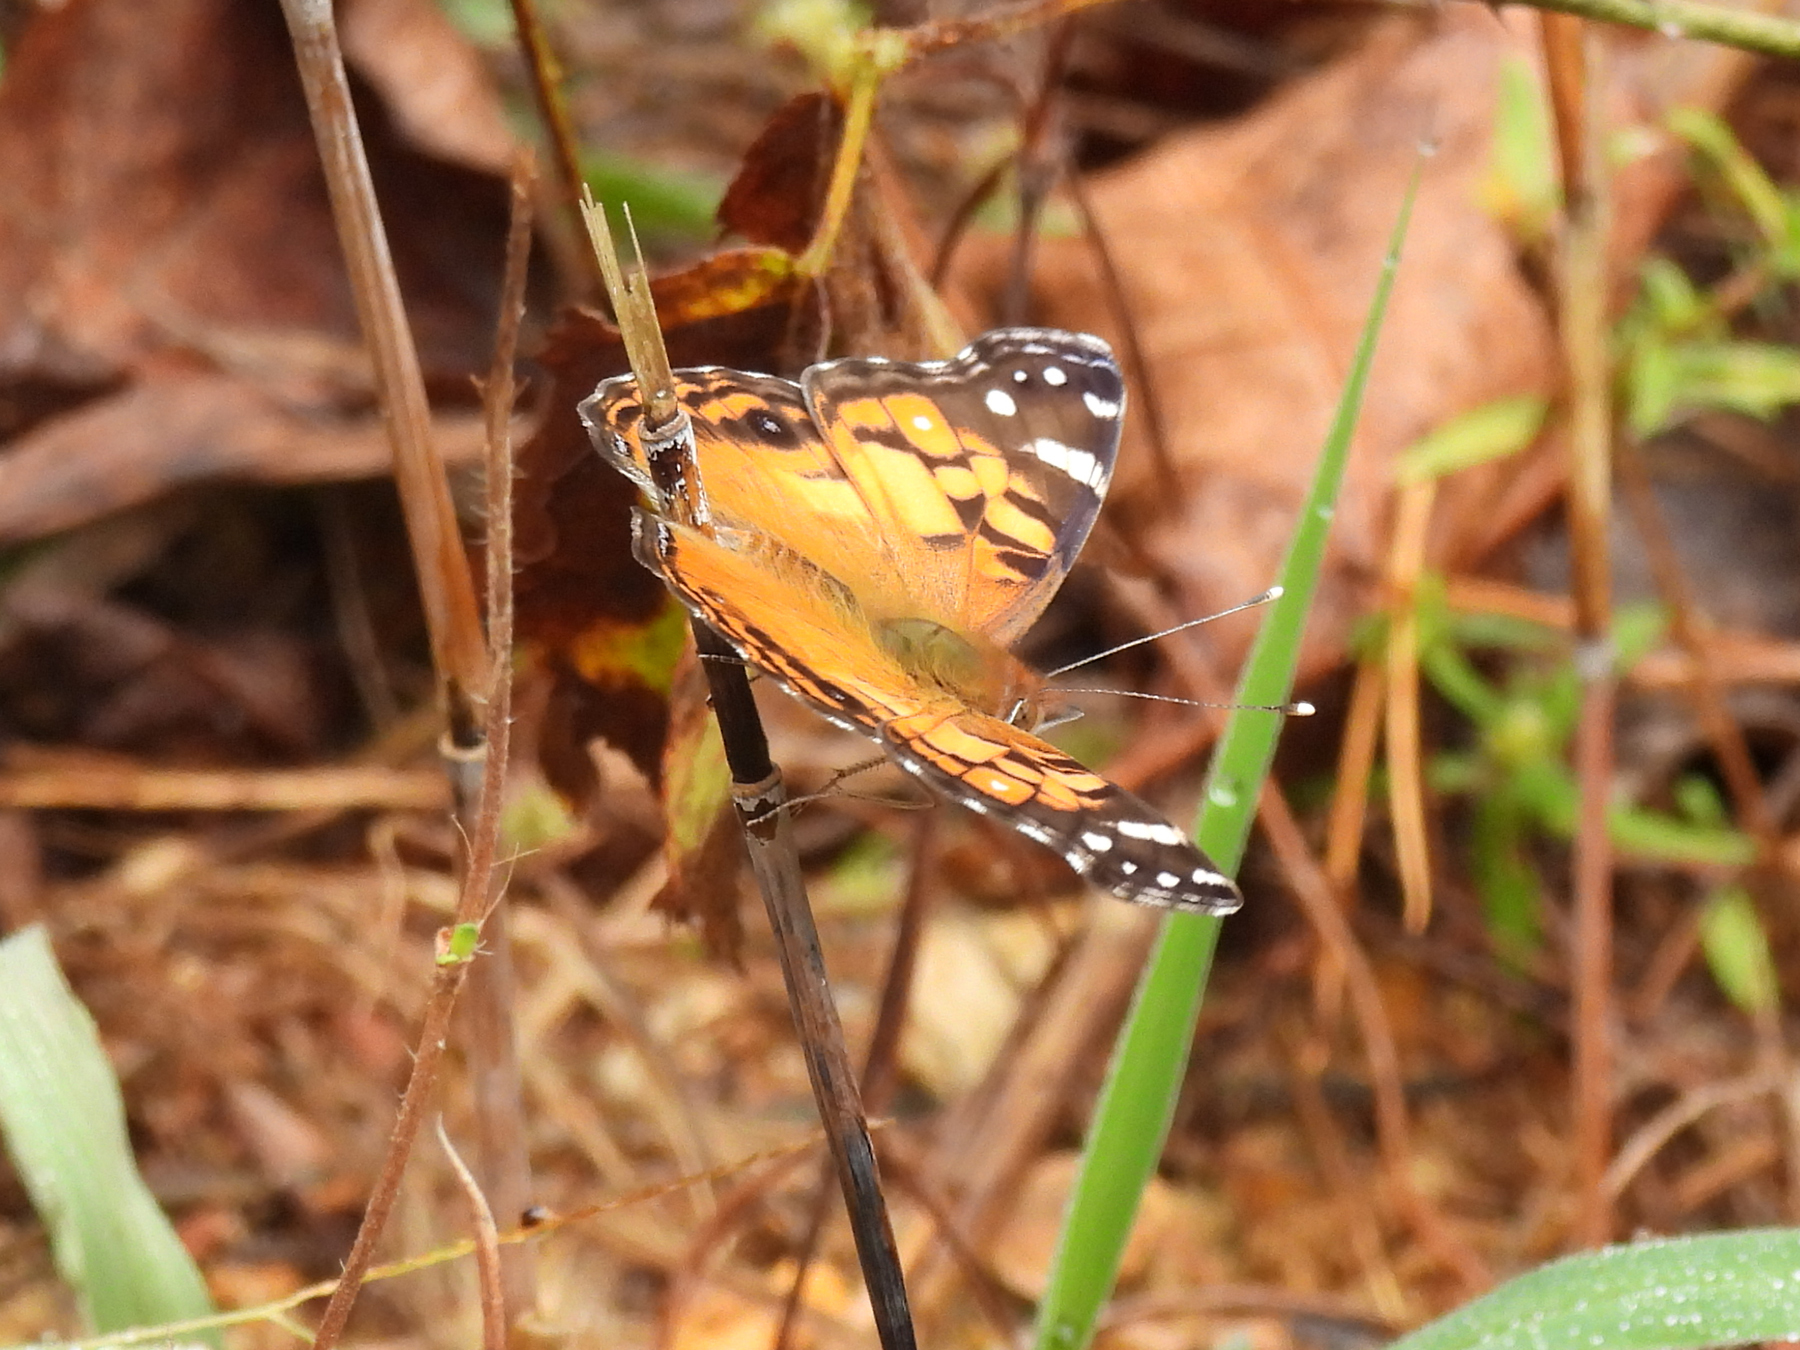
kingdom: Animalia
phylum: Arthropoda
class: Insecta
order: Lepidoptera
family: Nymphalidae
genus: Vanessa
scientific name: Vanessa virginiensis
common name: American lady
